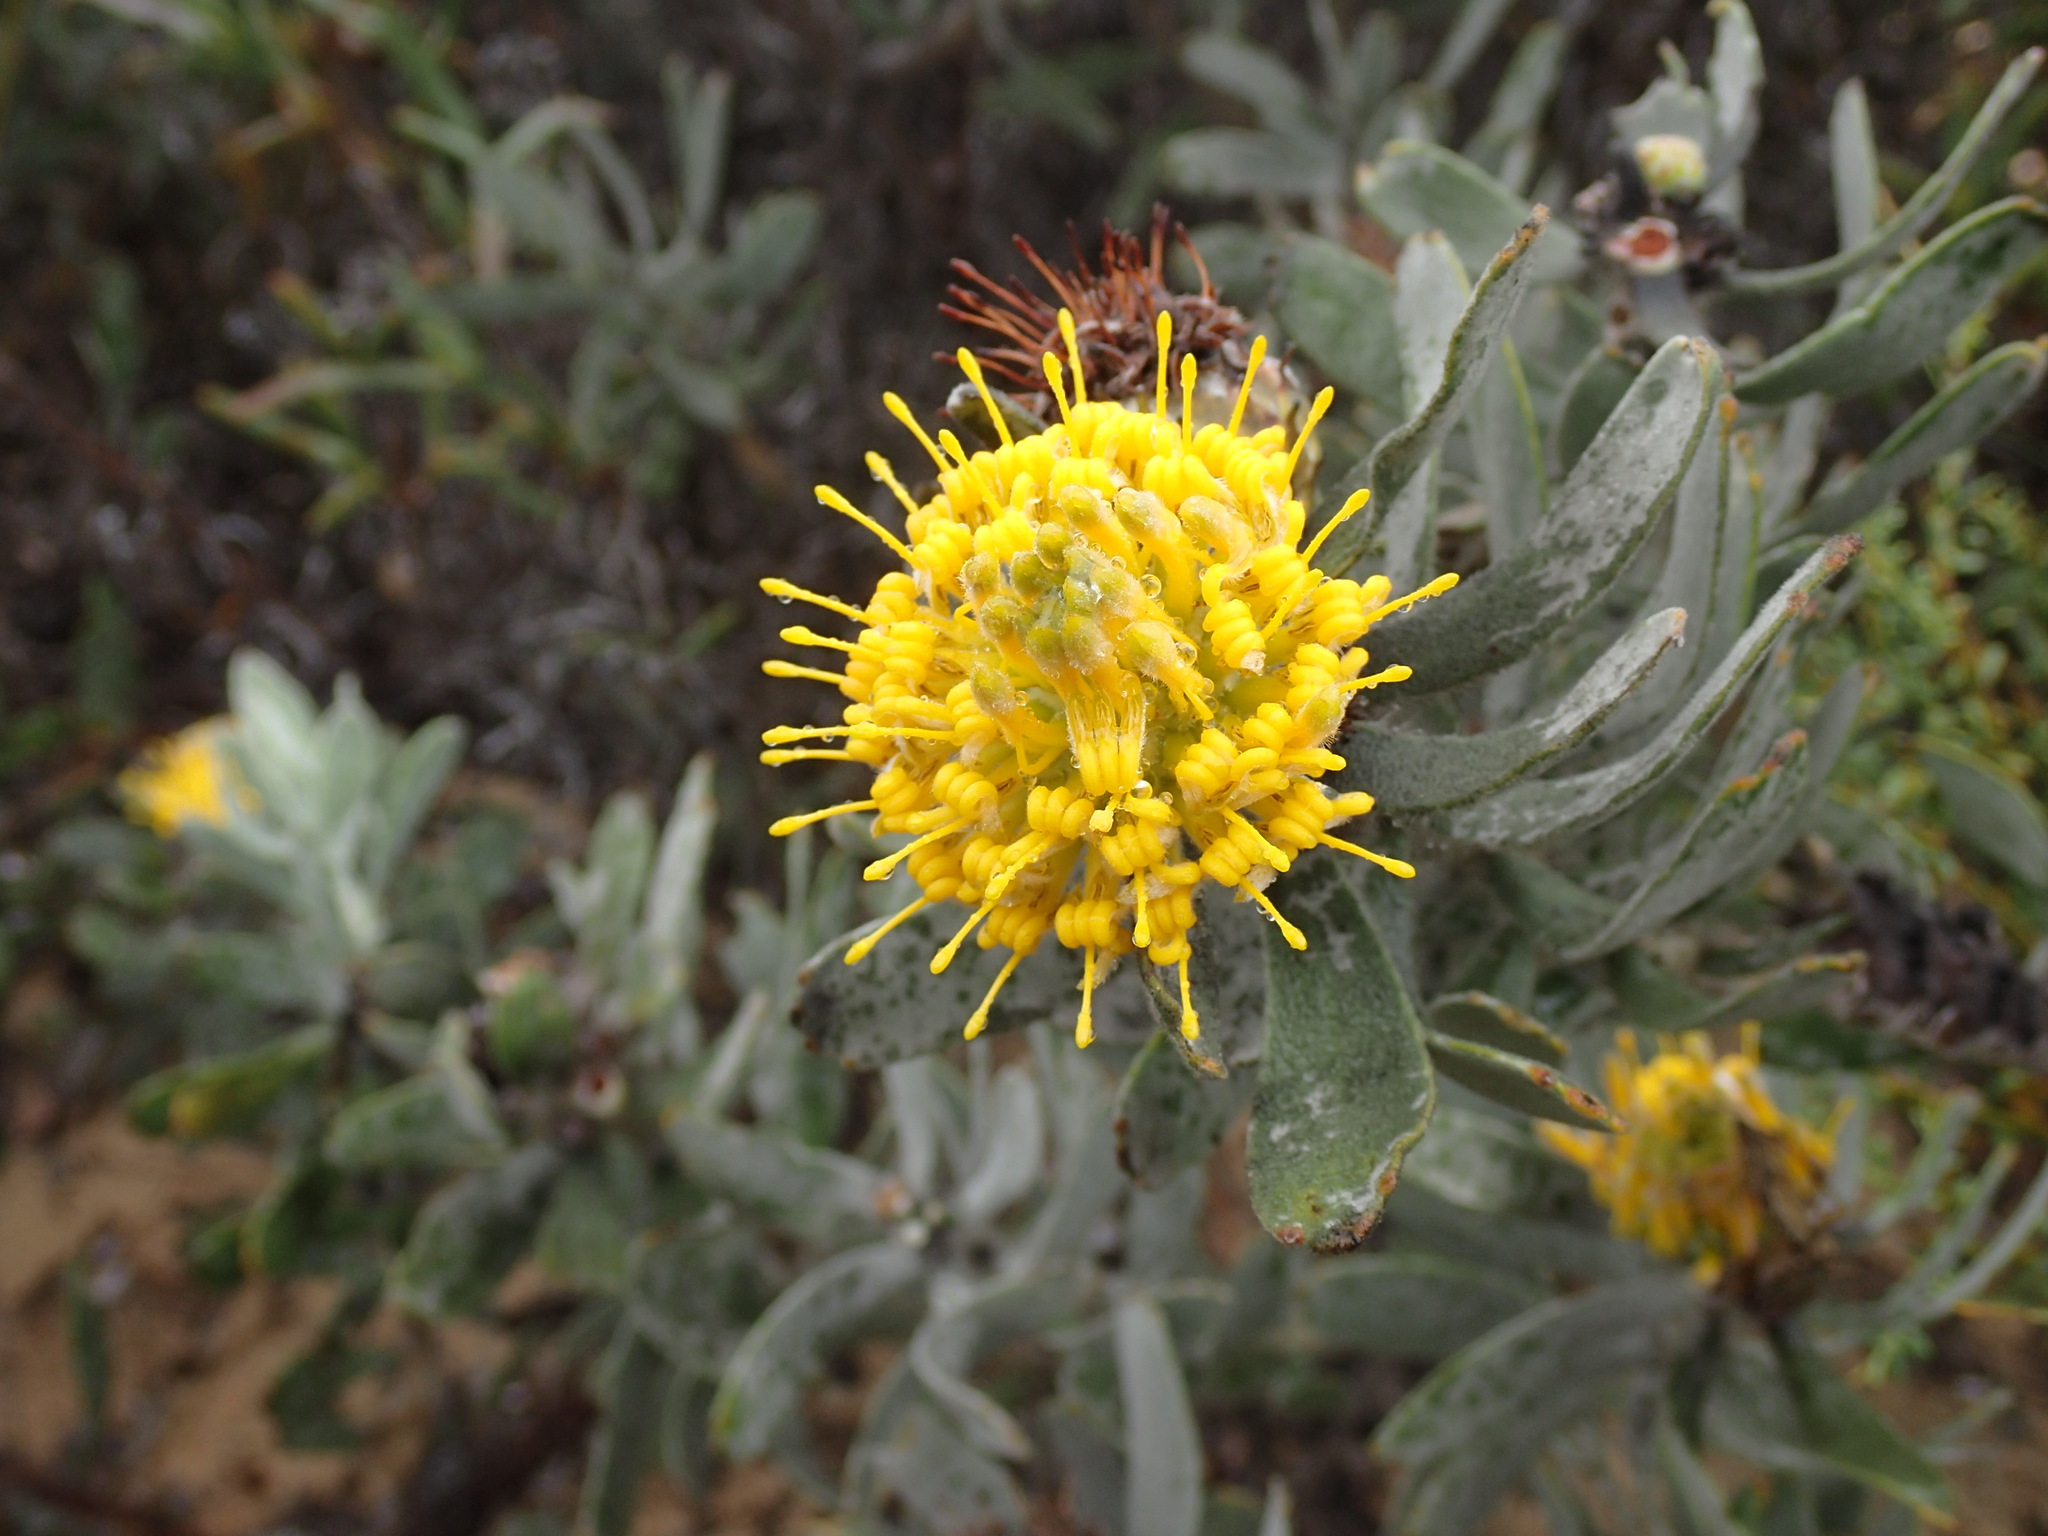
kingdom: Plantae
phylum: Tracheophyta
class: Magnoliopsida
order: Proteales
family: Proteaceae
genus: Leucospermum
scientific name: Leucospermum rodolentum
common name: Pincushion
